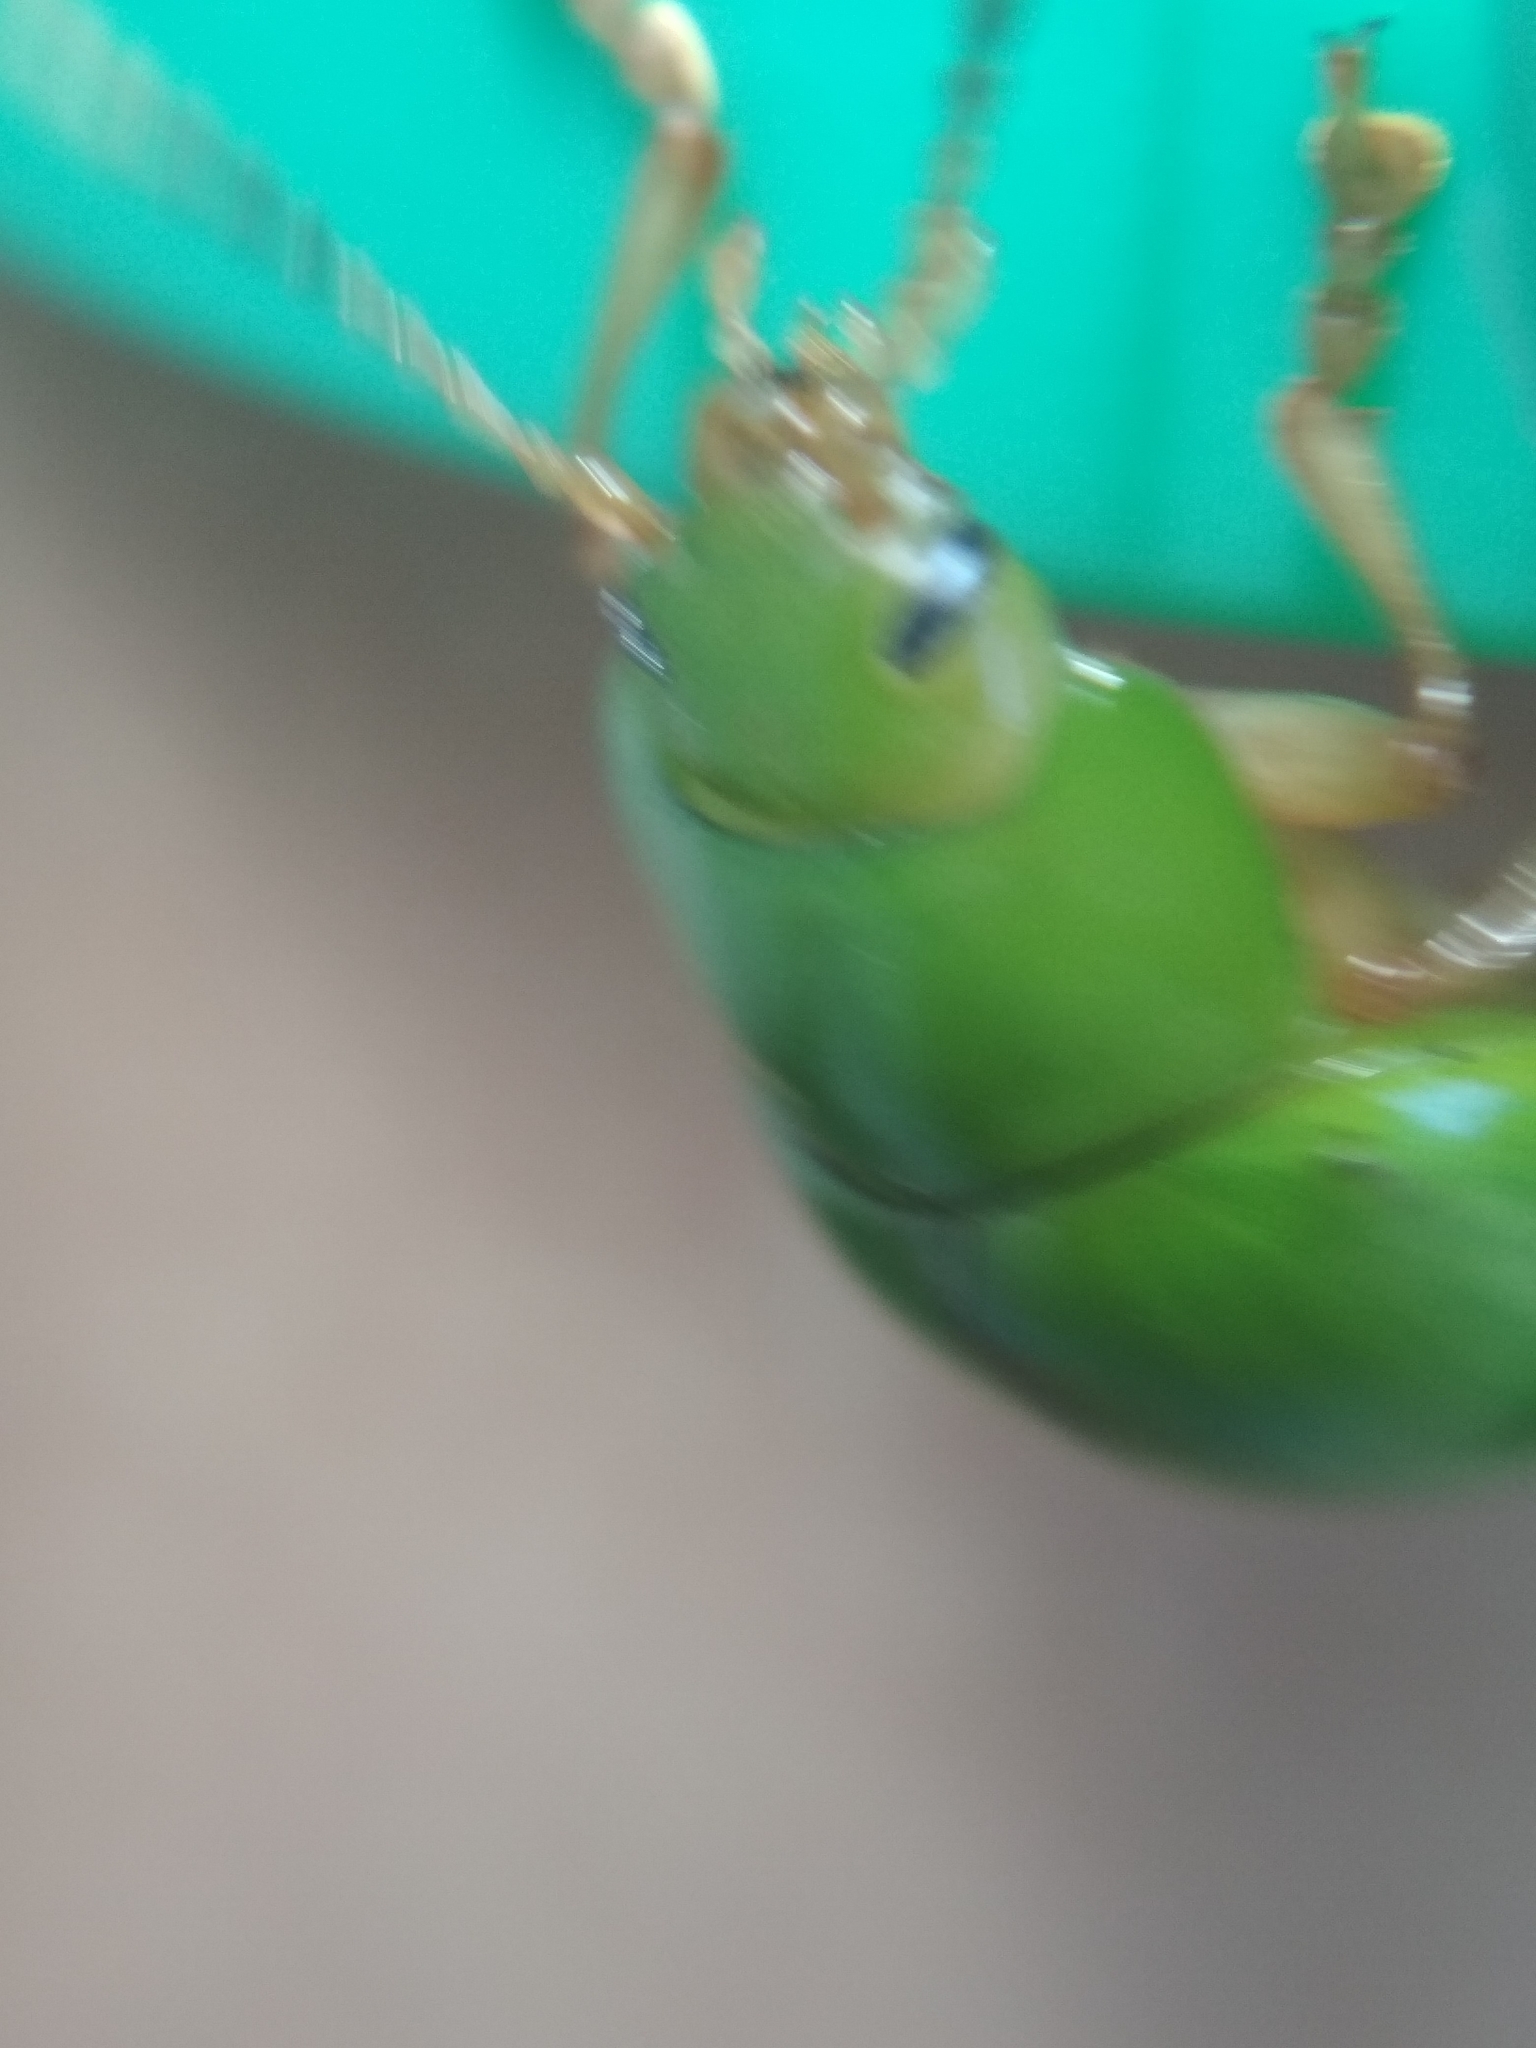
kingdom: Animalia
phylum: Arthropoda
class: Insecta
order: Coleoptera
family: Chrysomelidae
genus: Platyphora
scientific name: Platyphora
